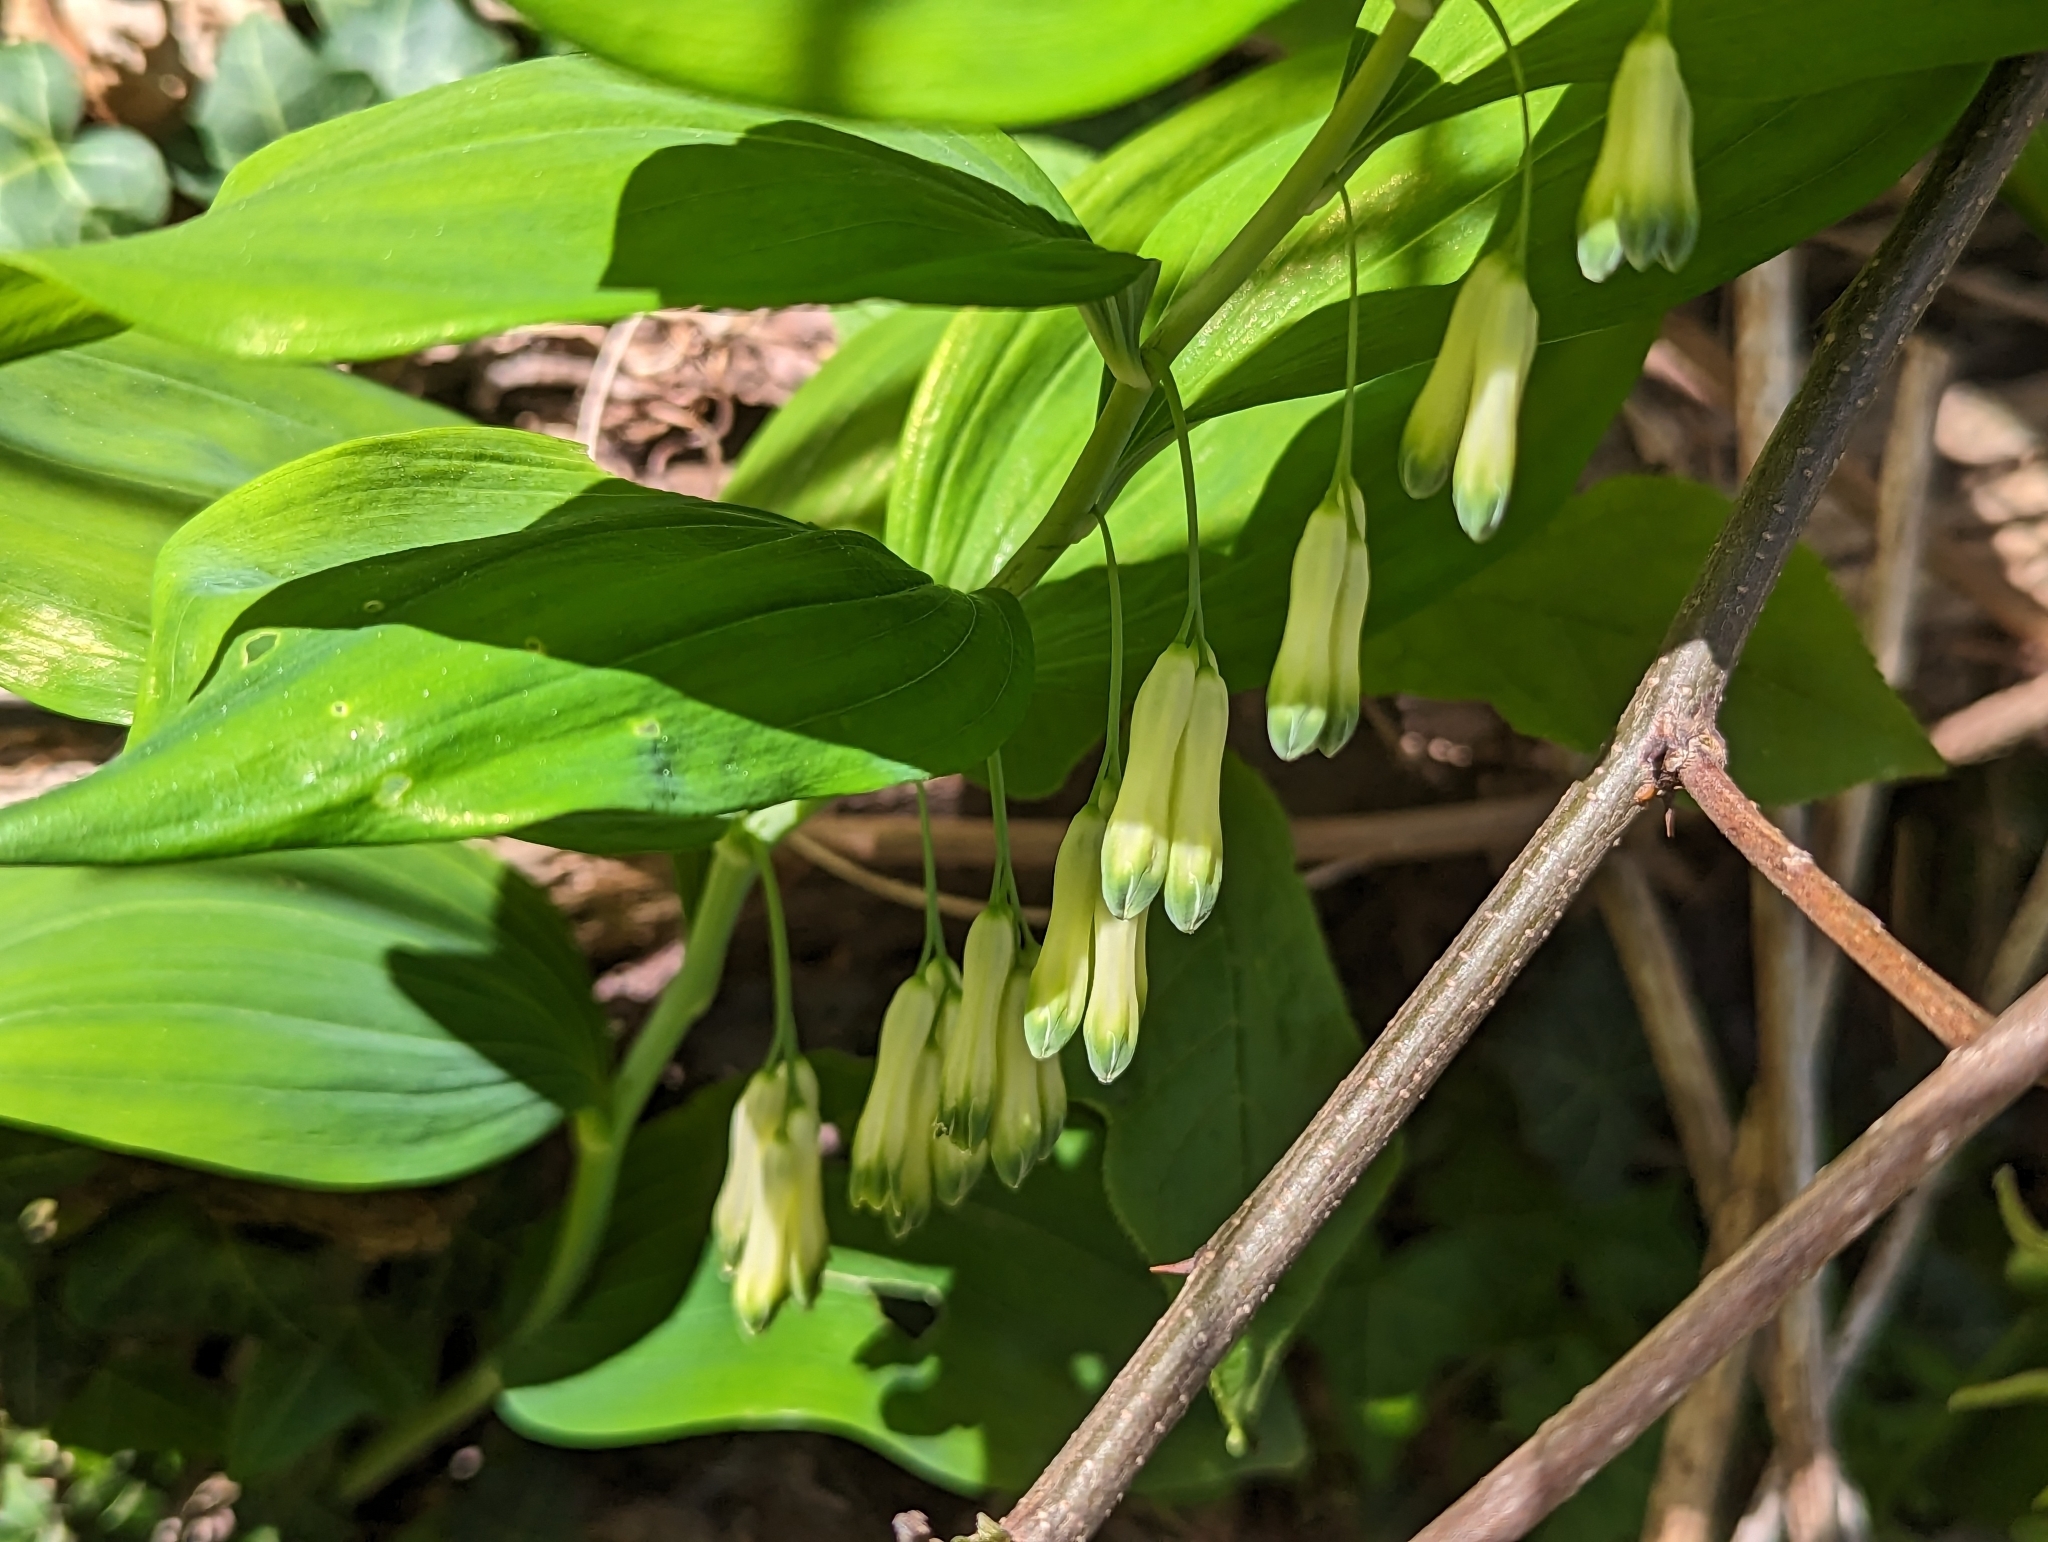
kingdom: Plantae
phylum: Tracheophyta
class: Liliopsida
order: Asparagales
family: Asparagaceae
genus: Polygonatum
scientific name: Polygonatum multiflorum
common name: Solomon's-seal
